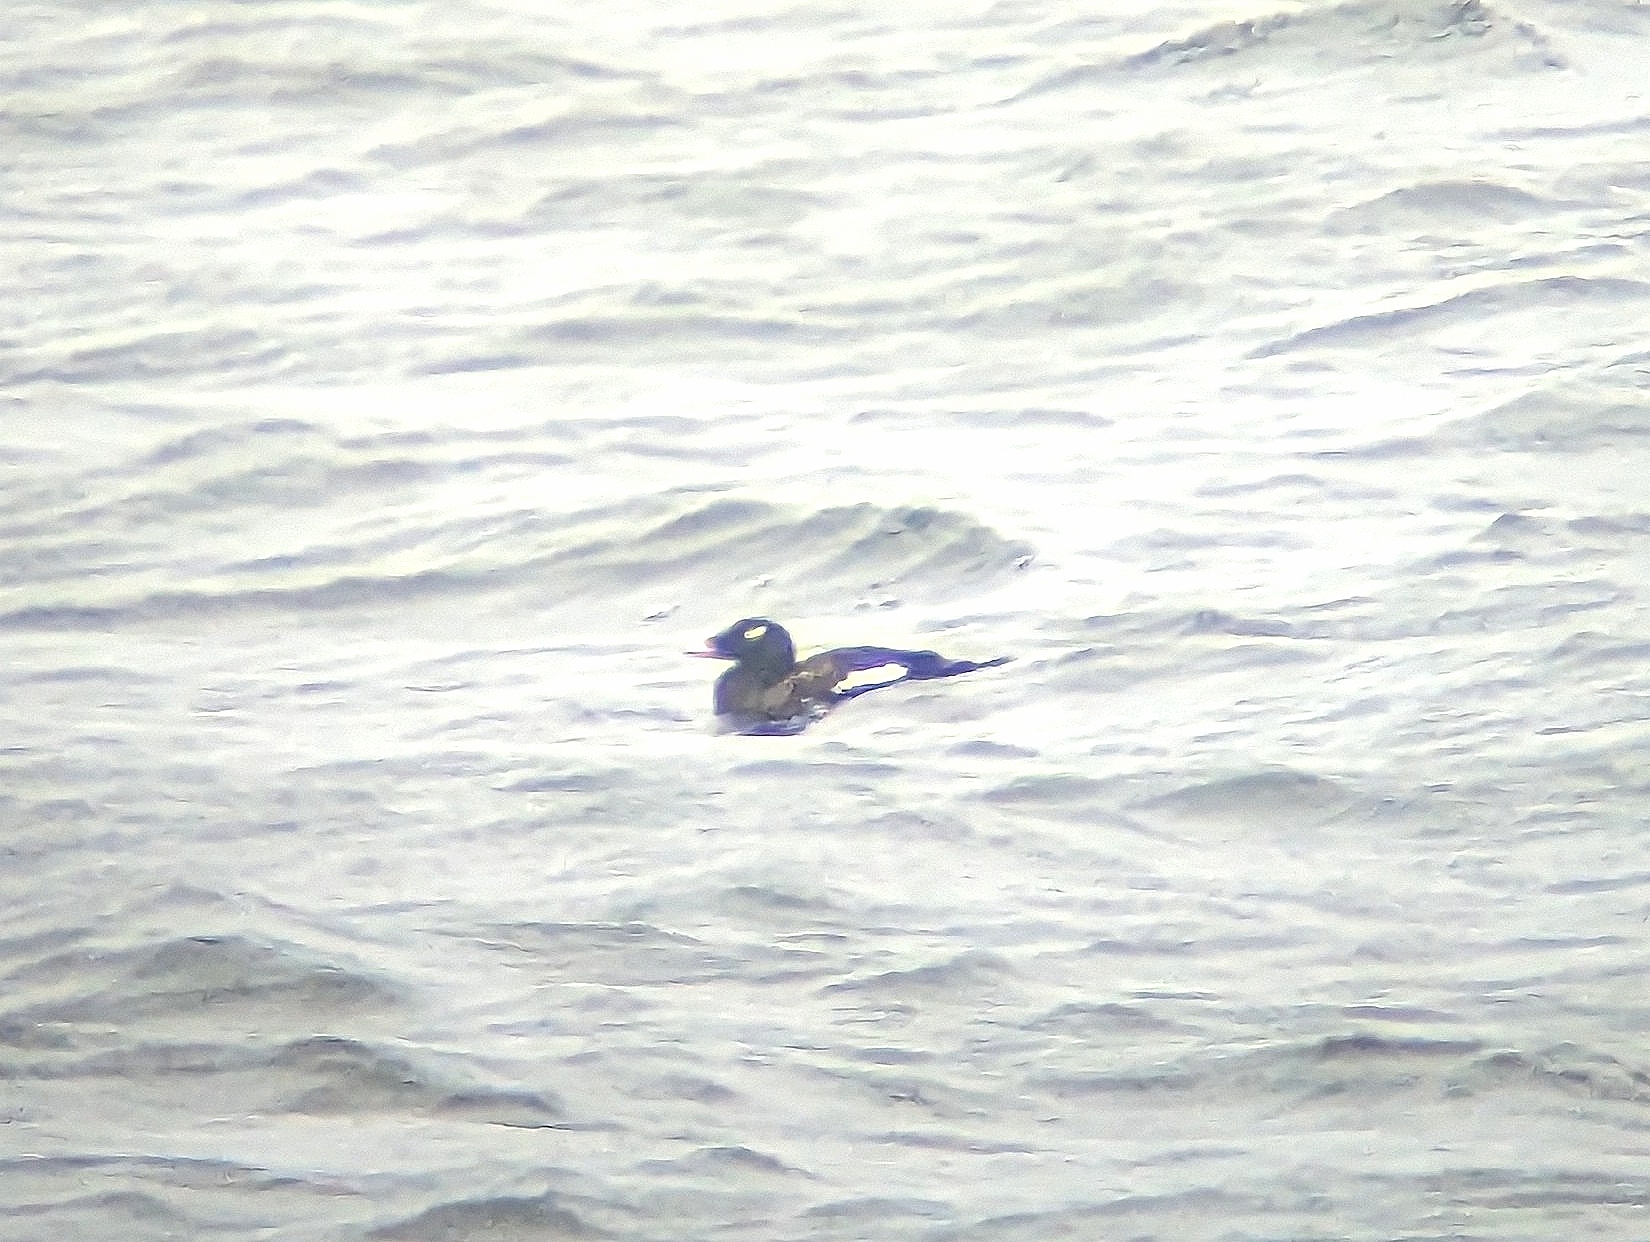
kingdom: Animalia
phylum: Chordata
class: Aves
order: Anseriformes
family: Anatidae
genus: Melanitta
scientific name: Melanitta deglandi
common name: White-winged scoter
